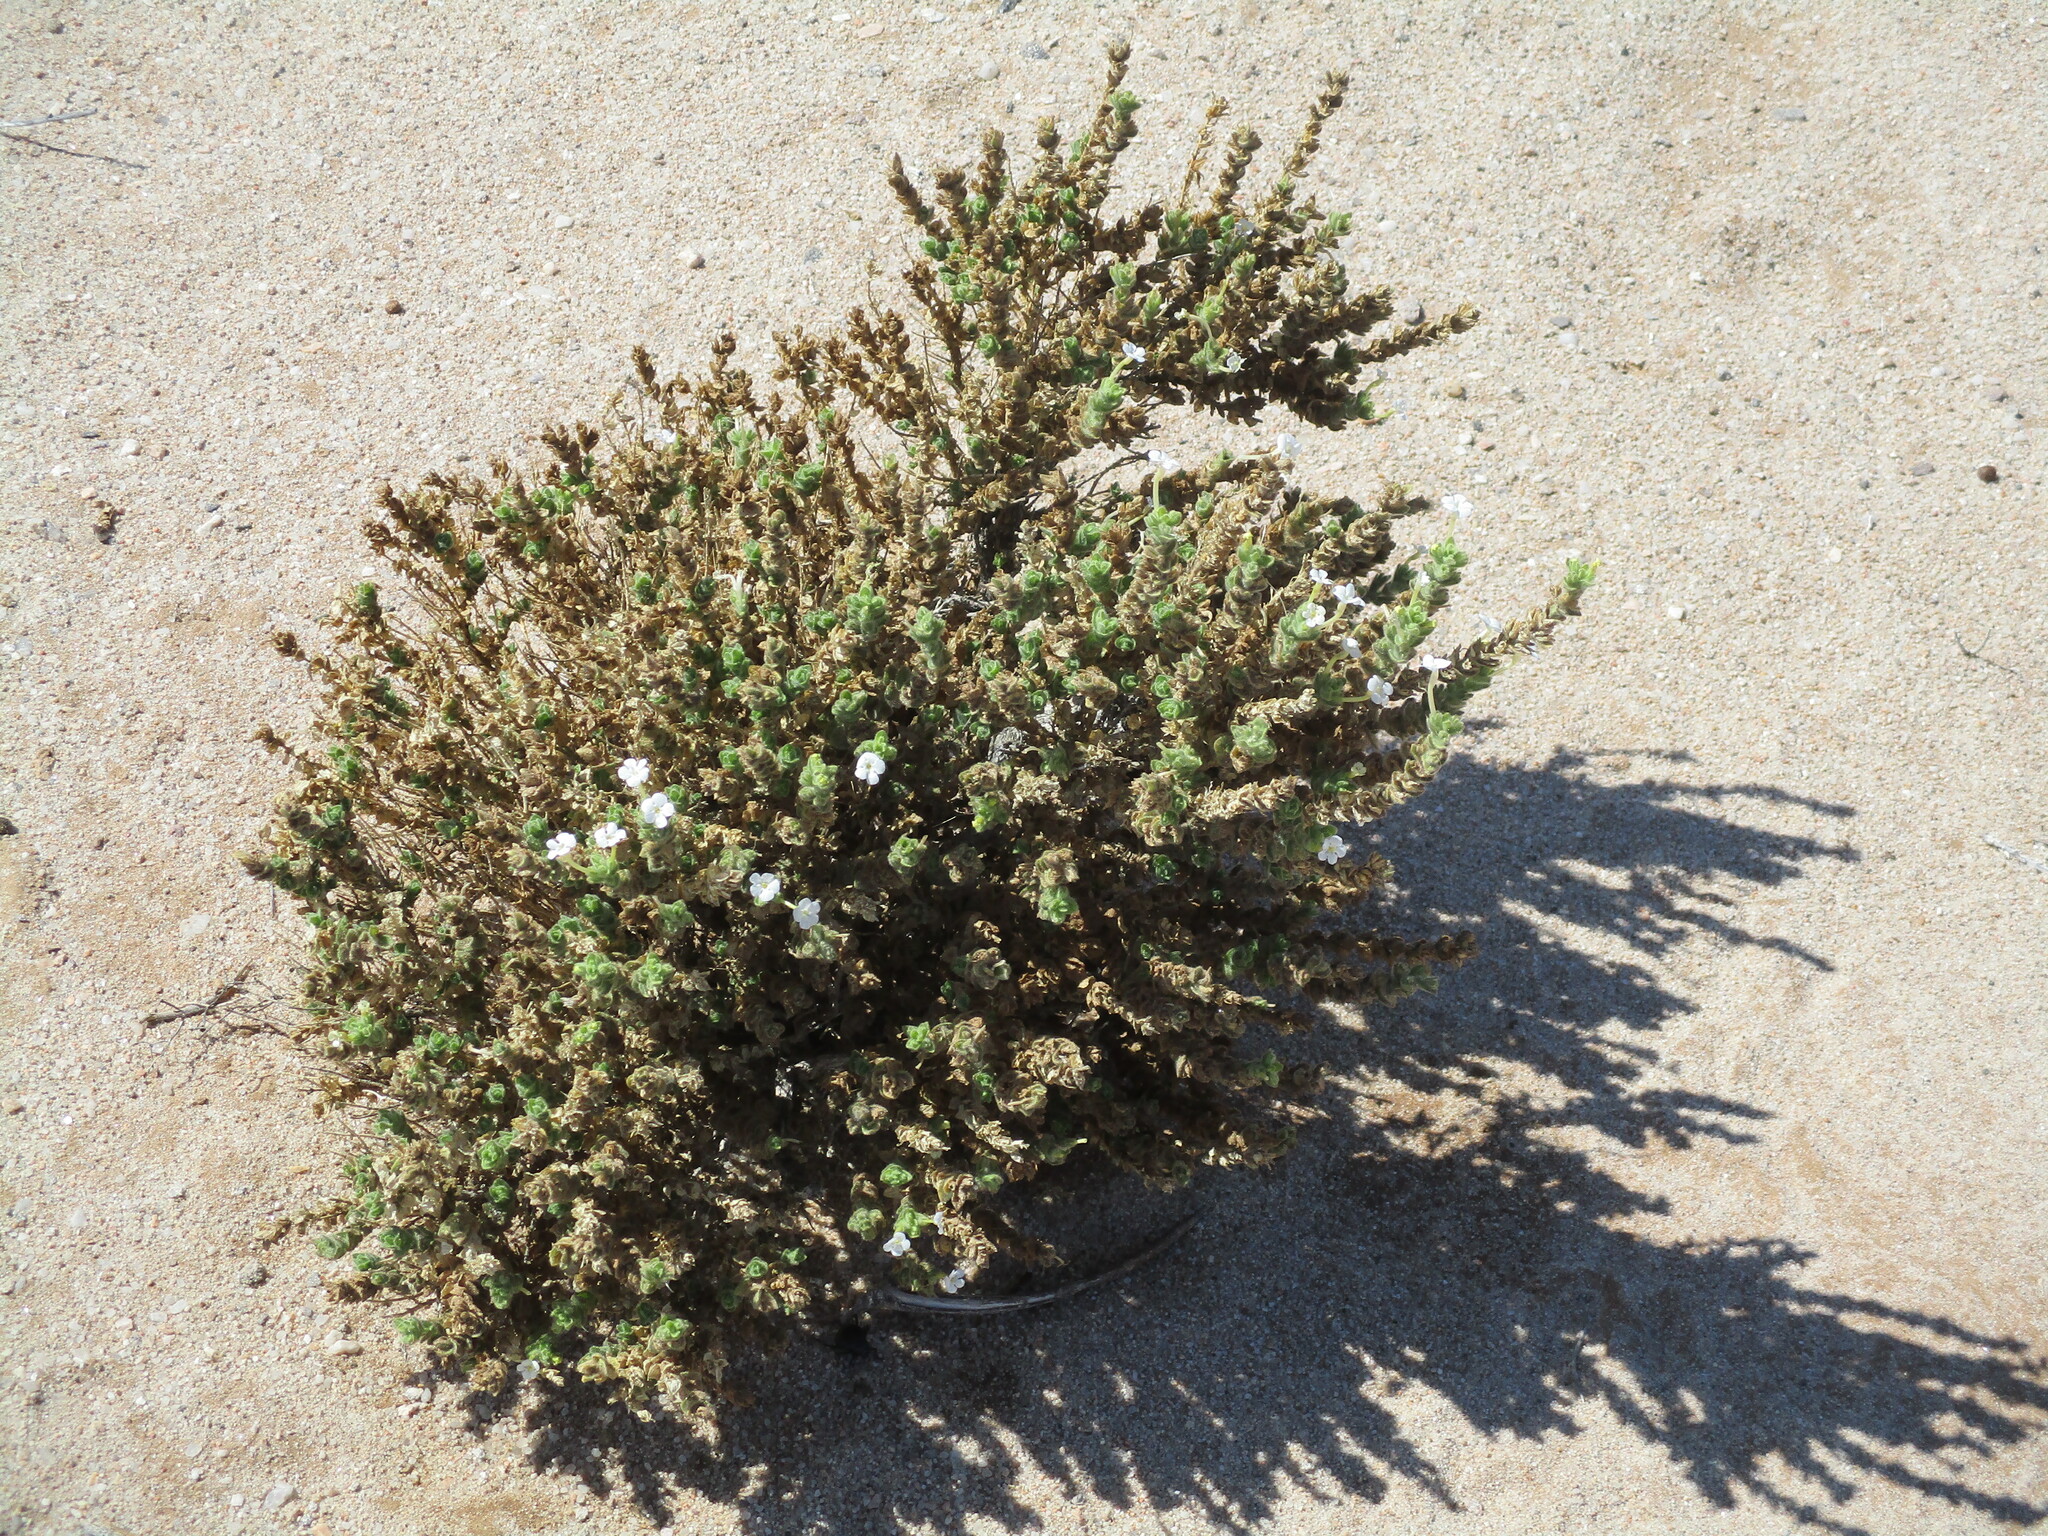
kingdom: Plantae
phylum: Tracheophyta
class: Magnoliopsida
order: Lamiales
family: Scrophulariaceae
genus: Jamesbrittenia
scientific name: Jamesbrittenia maxii
